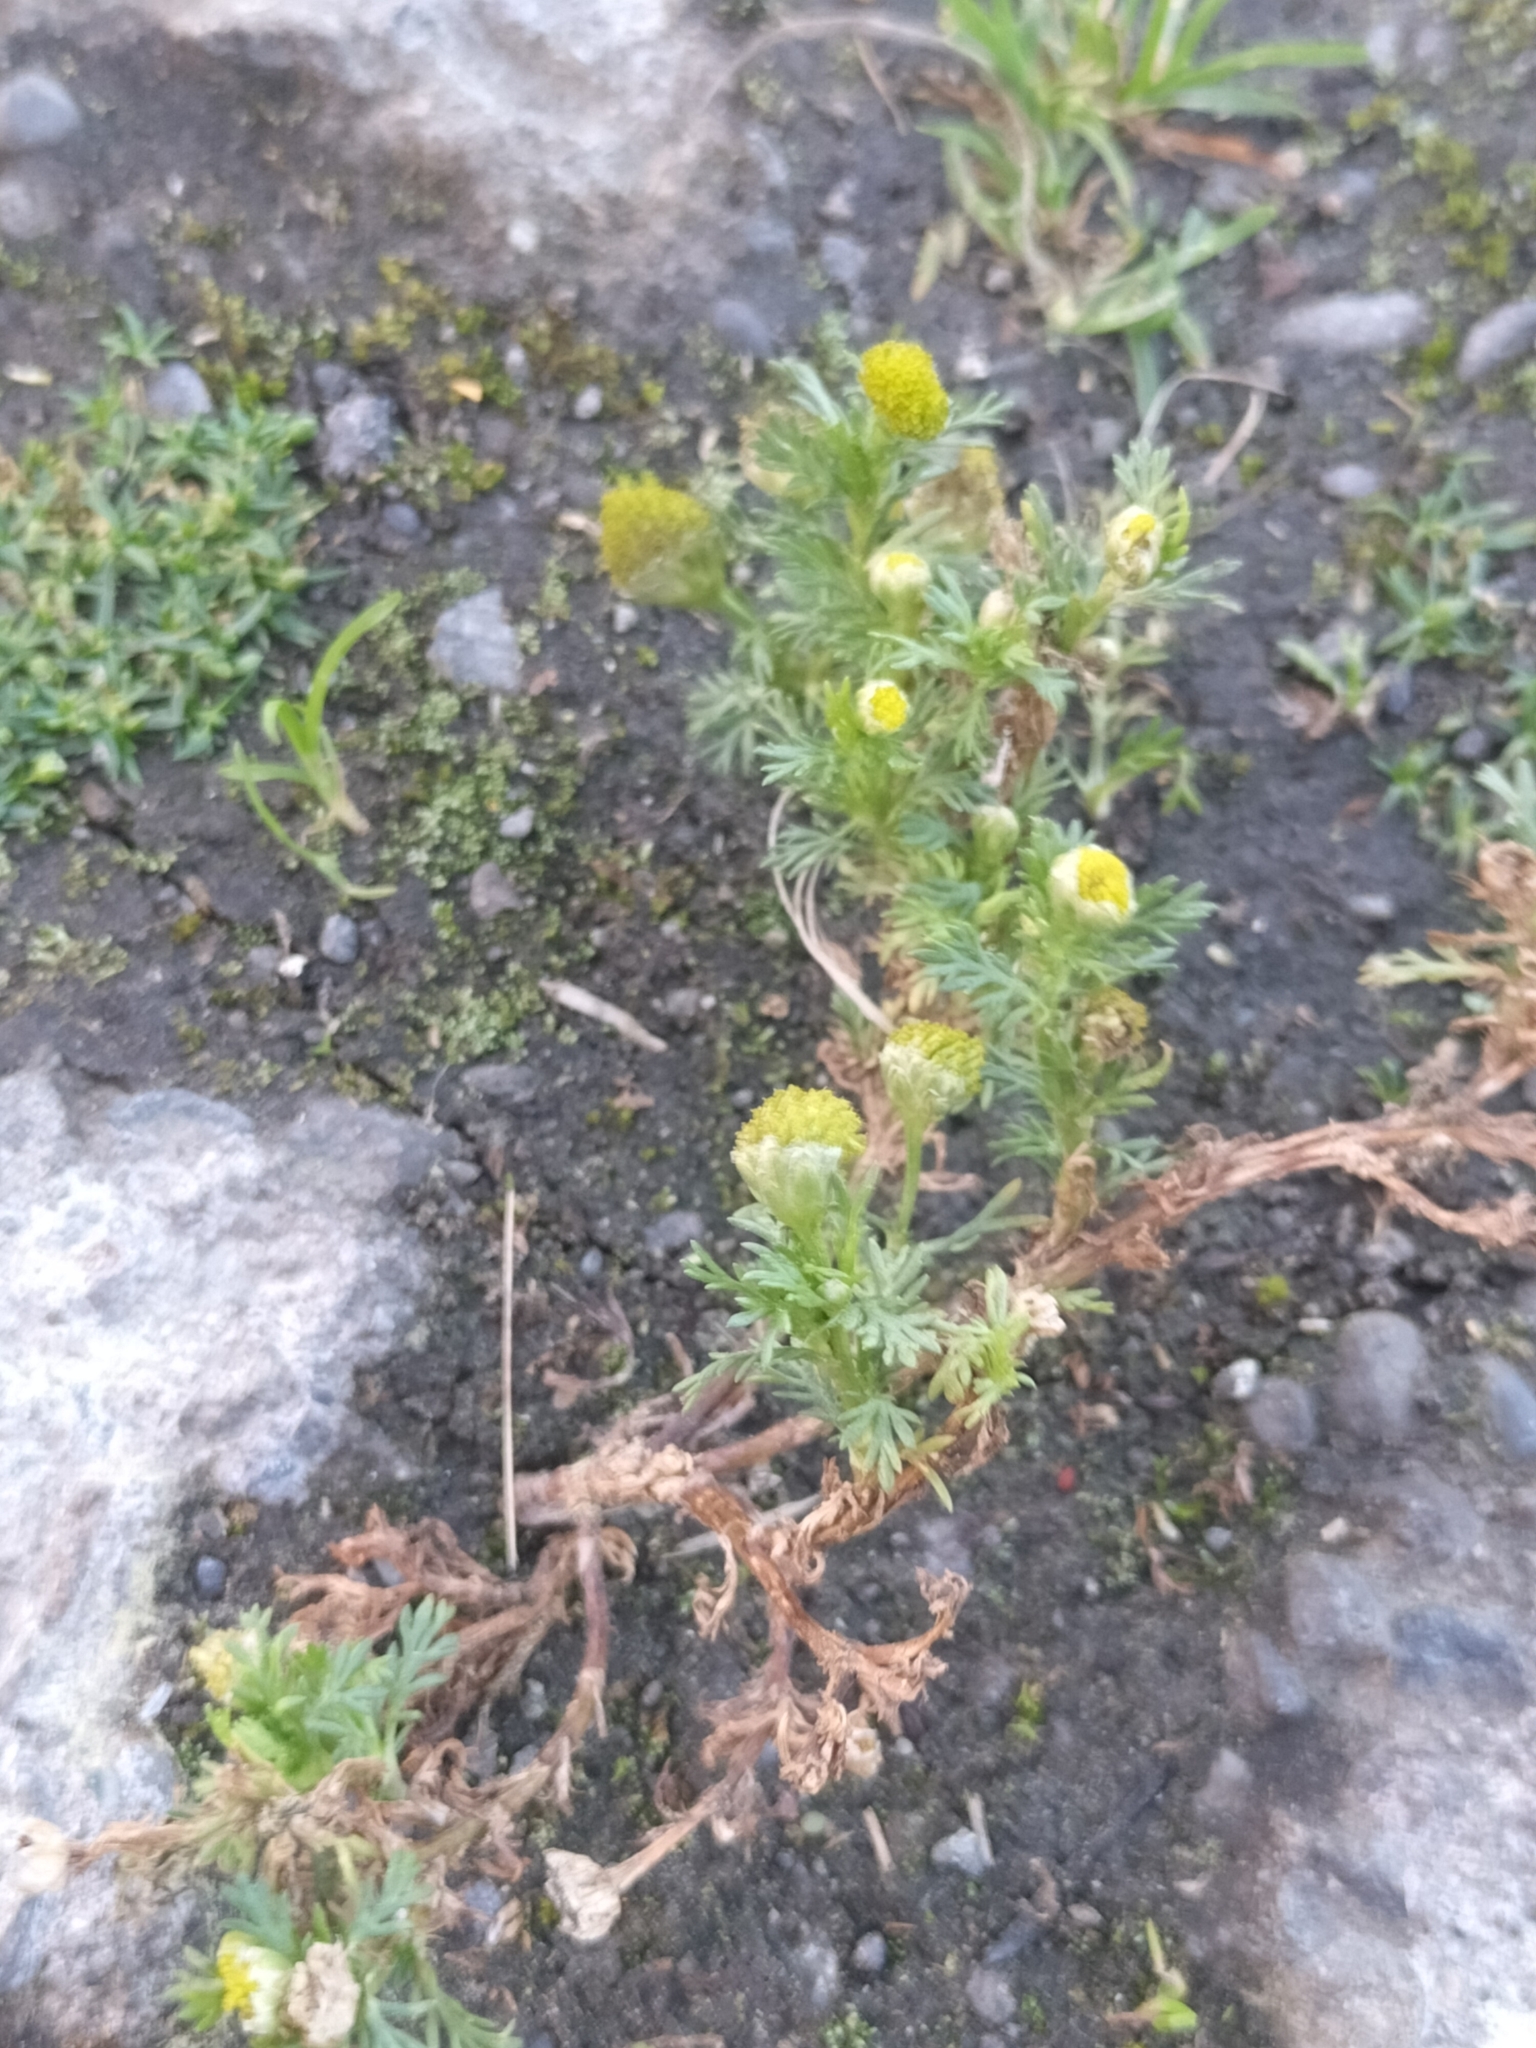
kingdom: Plantae
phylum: Tracheophyta
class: Magnoliopsida
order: Asterales
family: Asteraceae
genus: Matricaria
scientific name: Matricaria discoidea
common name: Disc mayweed
